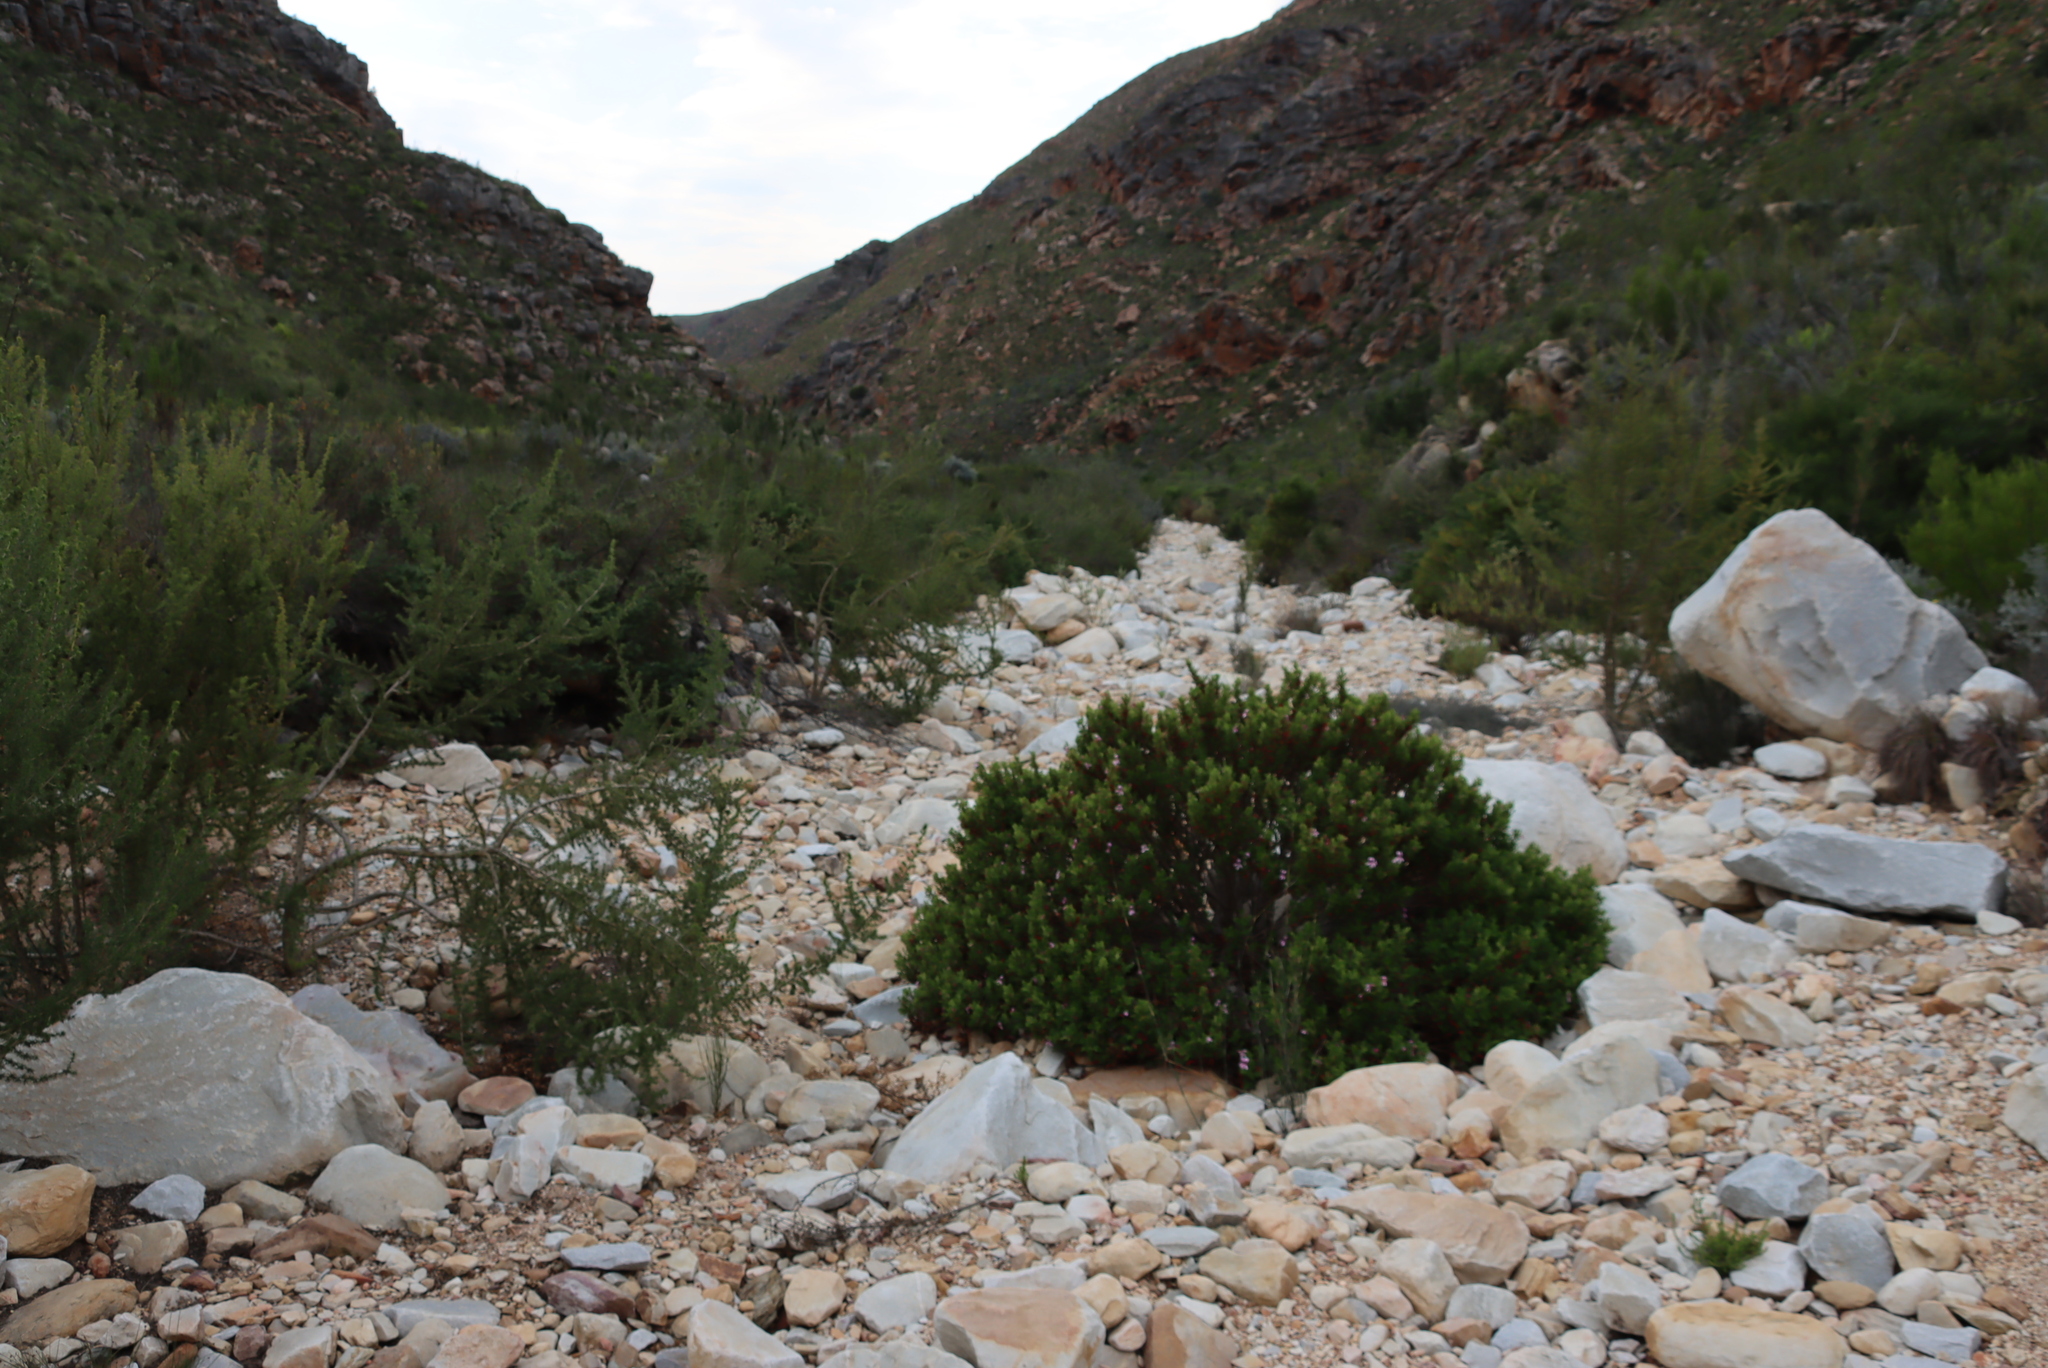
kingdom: Plantae
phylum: Tracheophyta
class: Magnoliopsida
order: Geraniales
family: Geraniaceae
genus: Pelargonium
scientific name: Pelargonium panduriforme
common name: Oakleaf garden geranium
